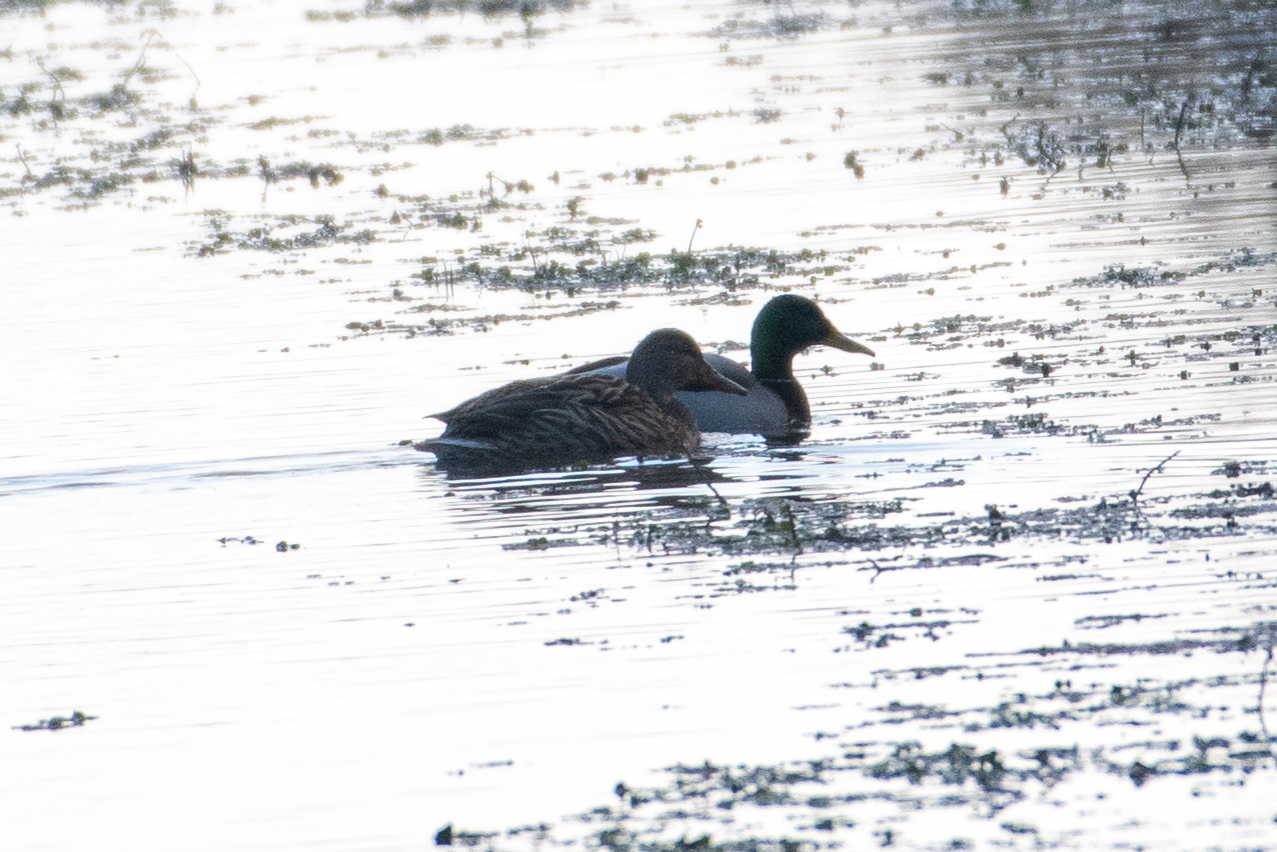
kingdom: Animalia
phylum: Chordata
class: Aves
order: Anseriformes
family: Anatidae
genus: Anas
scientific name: Anas platyrhynchos
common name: Mallard
